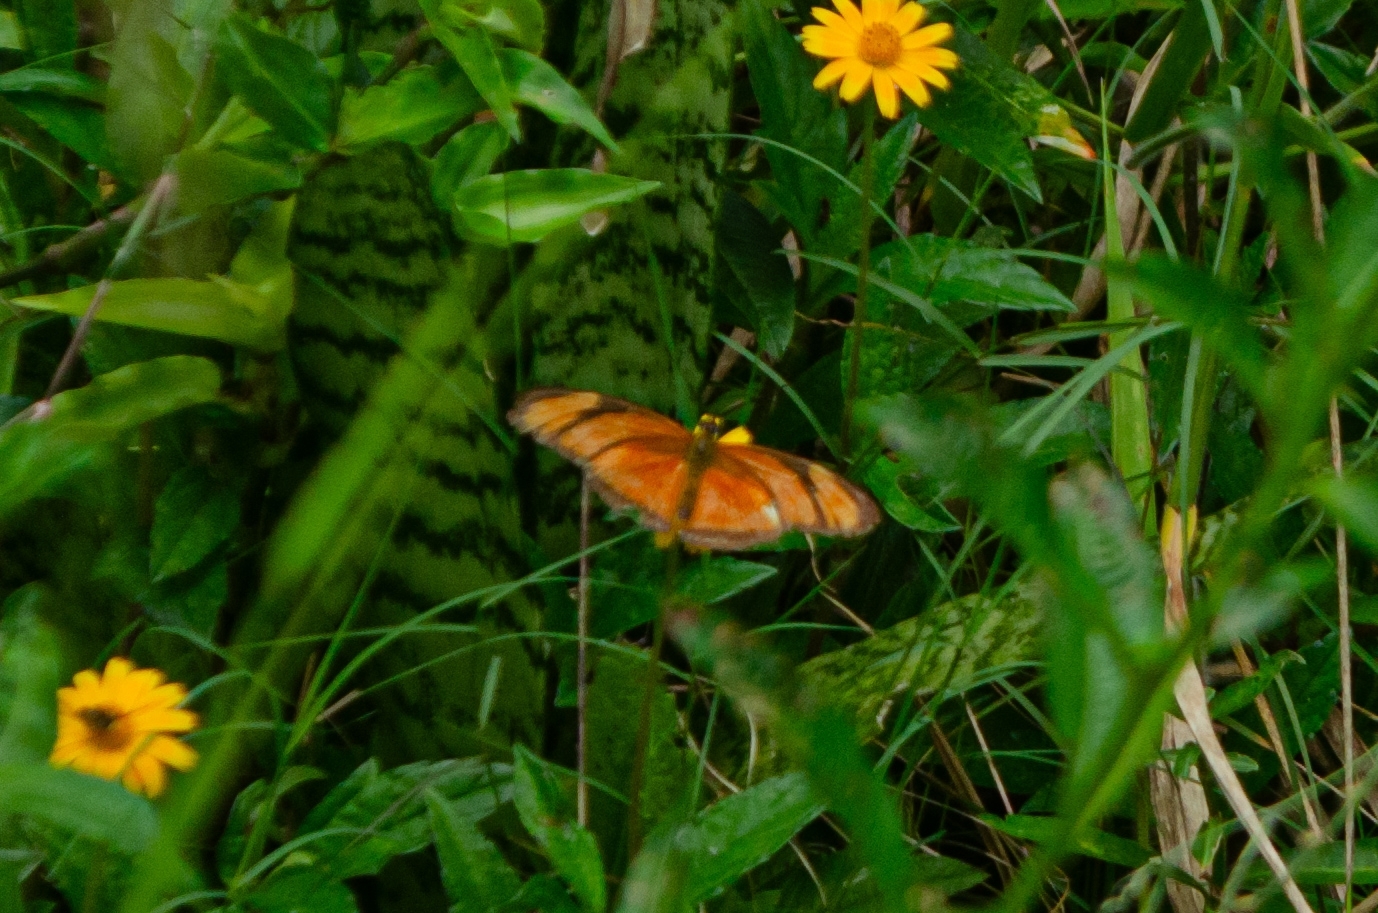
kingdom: Animalia
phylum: Arthropoda
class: Insecta
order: Lepidoptera
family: Nymphalidae
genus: Dryas
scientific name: Dryas iulia
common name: Flambeau
